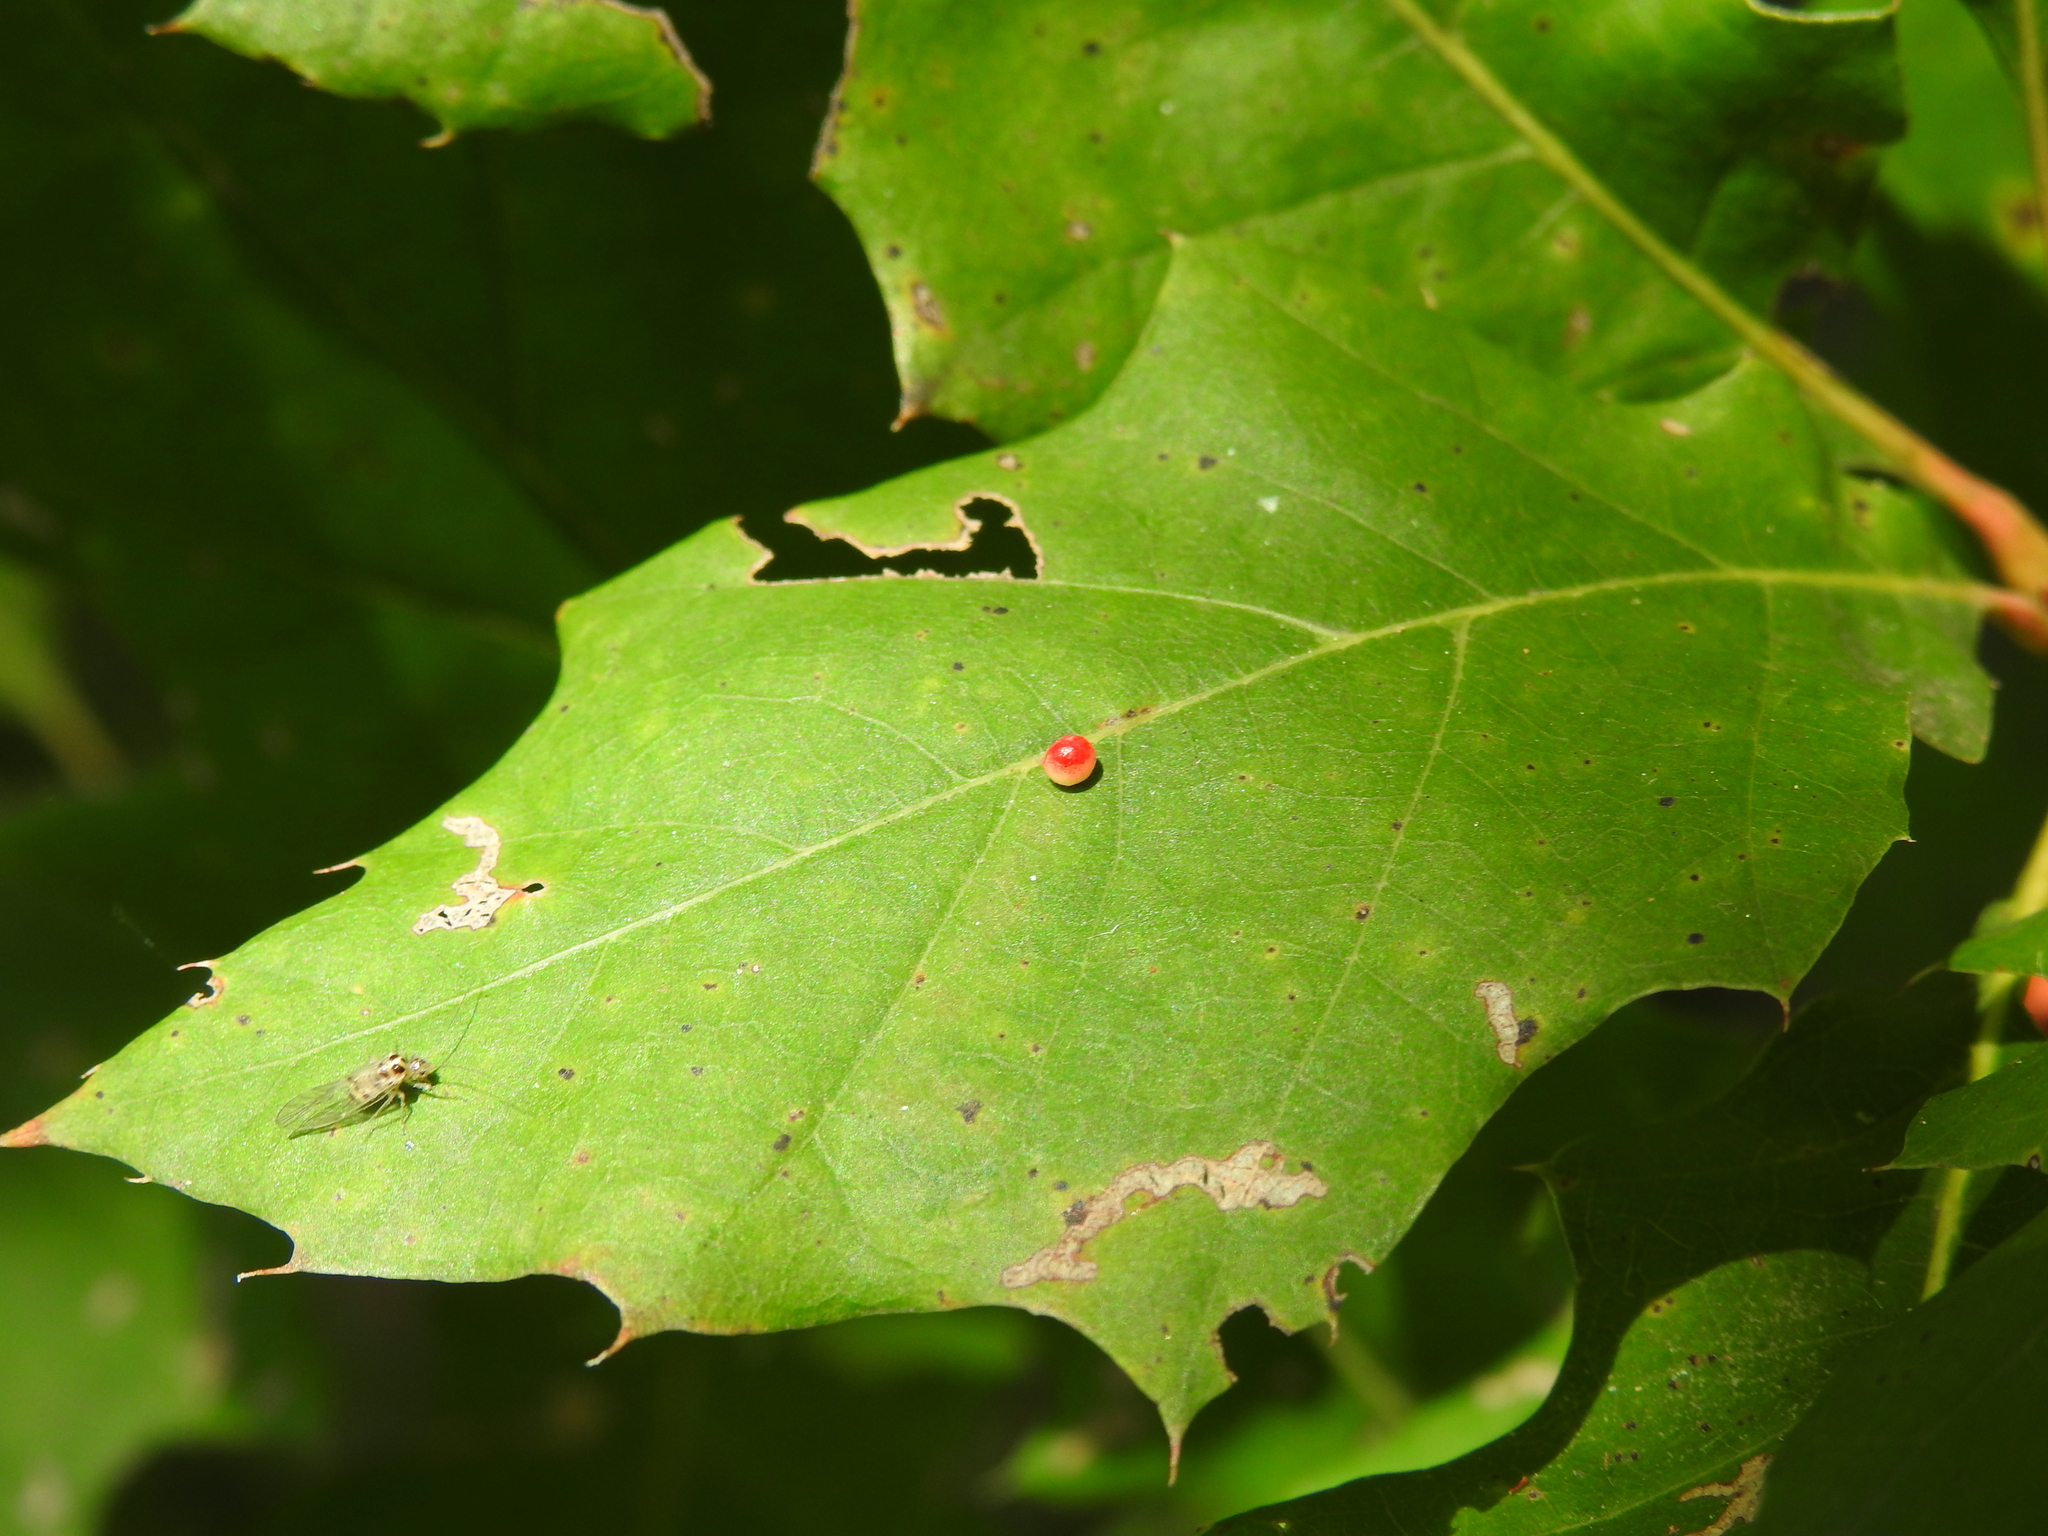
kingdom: Animalia
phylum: Arthropoda
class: Insecta
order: Hymenoptera
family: Cynipidae
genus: Zopheroteras
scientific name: Zopheroteras
